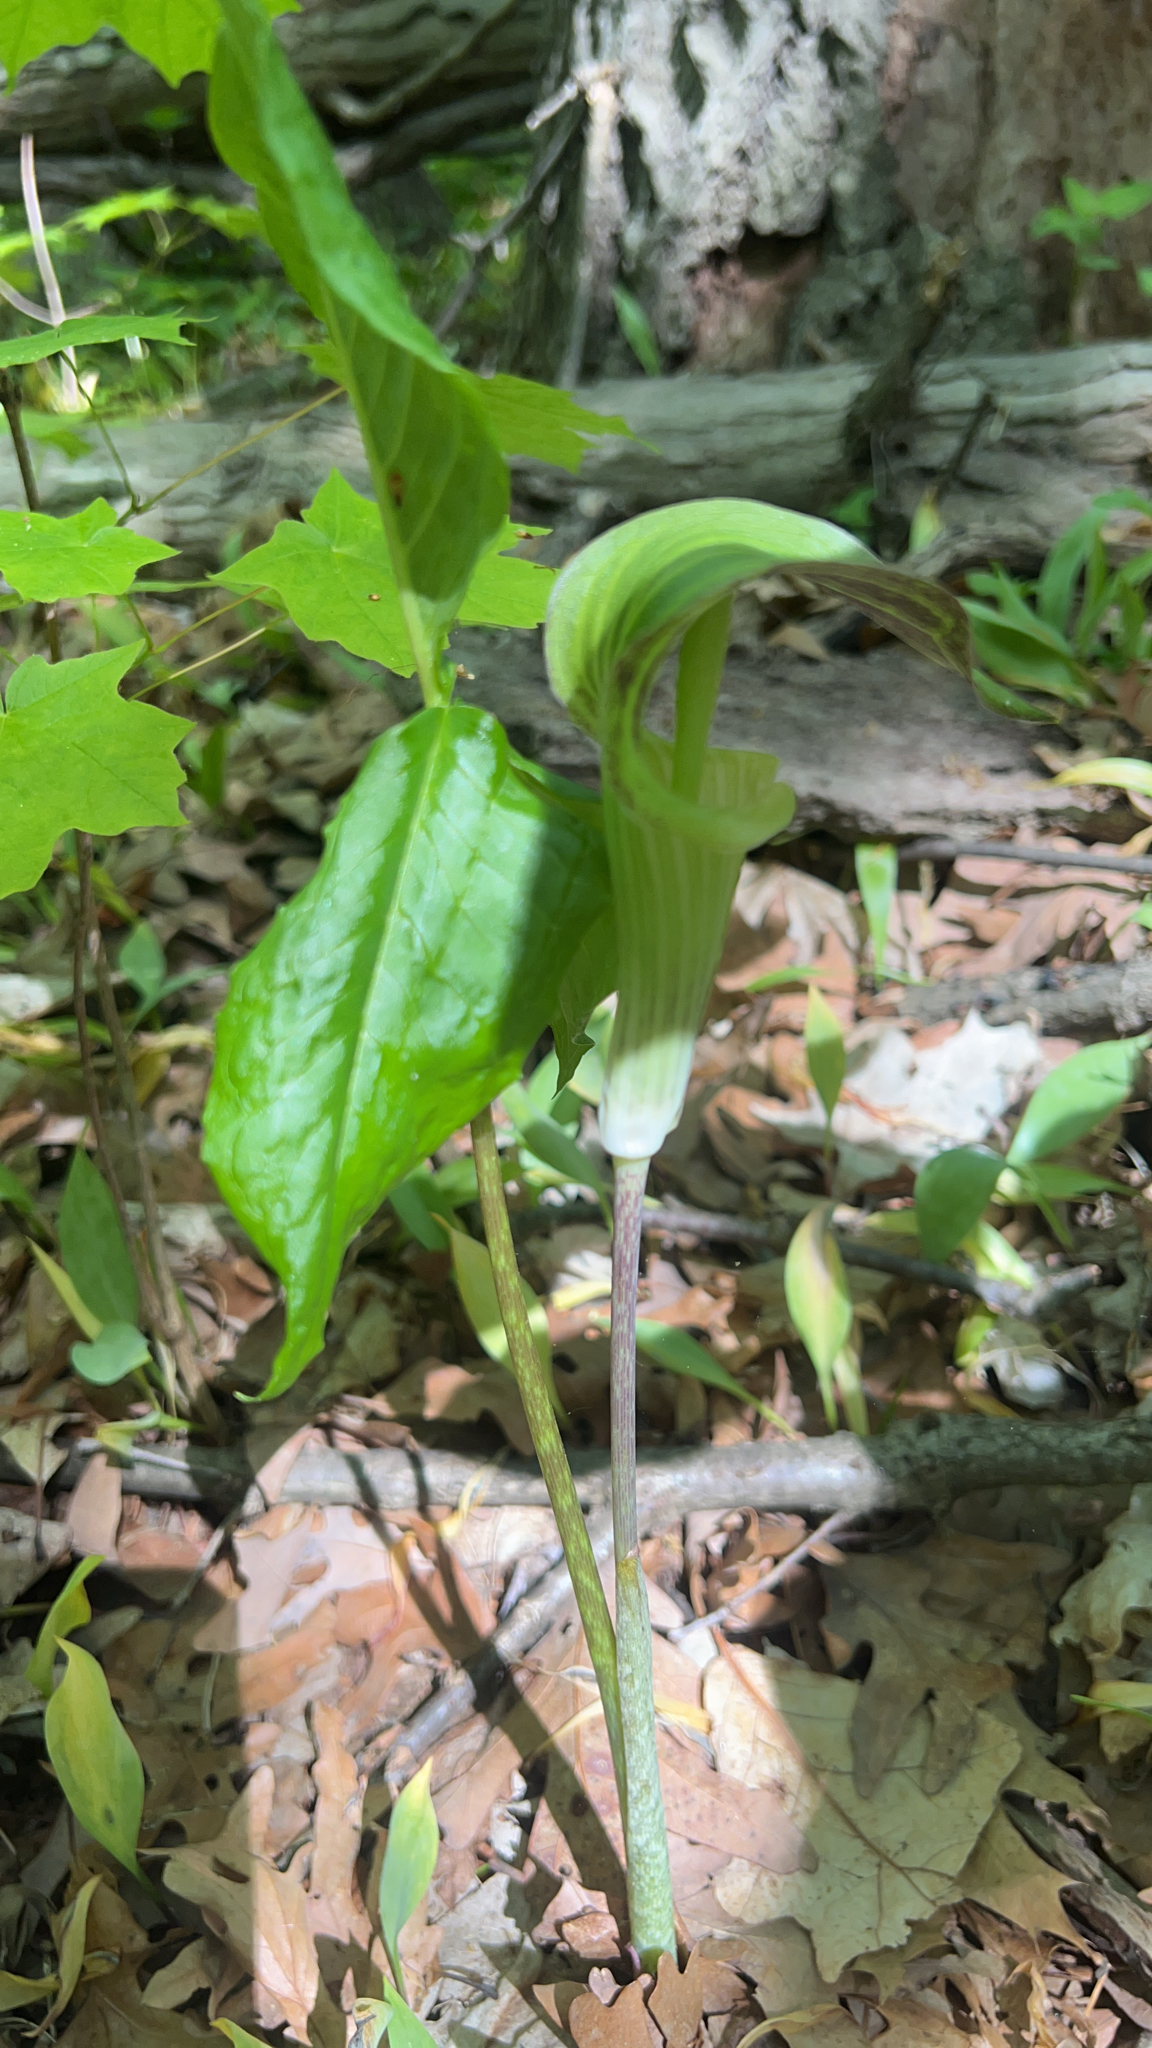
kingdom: Plantae
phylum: Tracheophyta
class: Liliopsida
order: Alismatales
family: Araceae
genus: Arisaema
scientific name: Arisaema triphyllum
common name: Jack-in-the-pulpit
